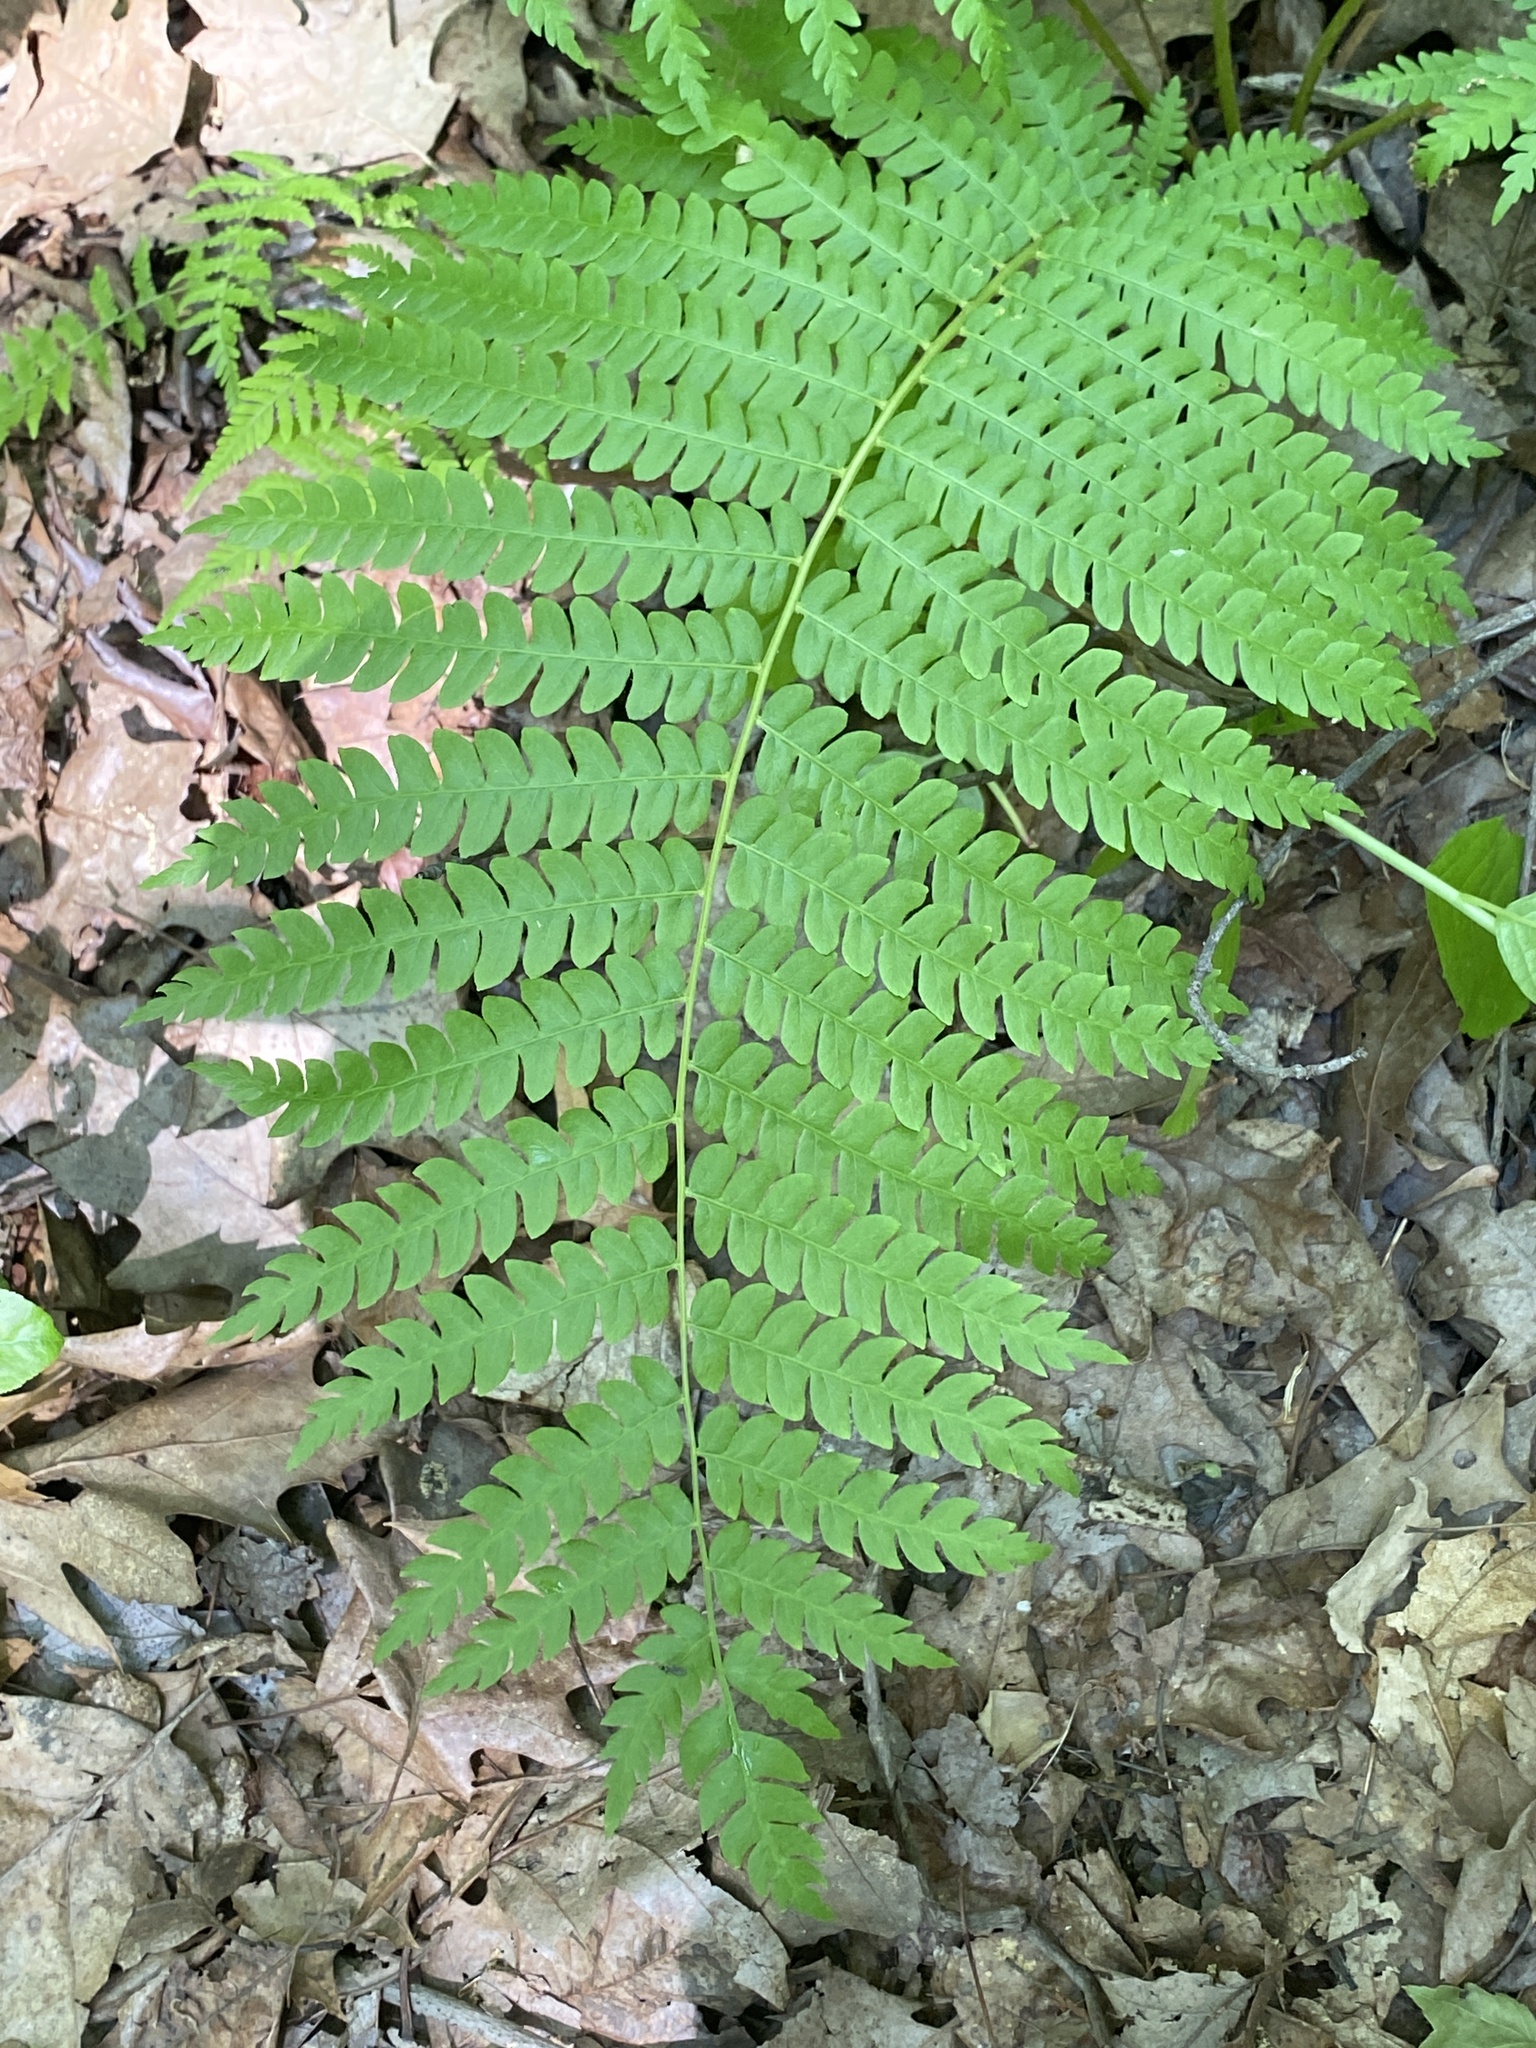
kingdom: Plantae
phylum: Tracheophyta
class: Polypodiopsida
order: Osmundales
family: Osmundaceae
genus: Osmundastrum
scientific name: Osmundastrum cinnamomeum
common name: Cinnamon fern
